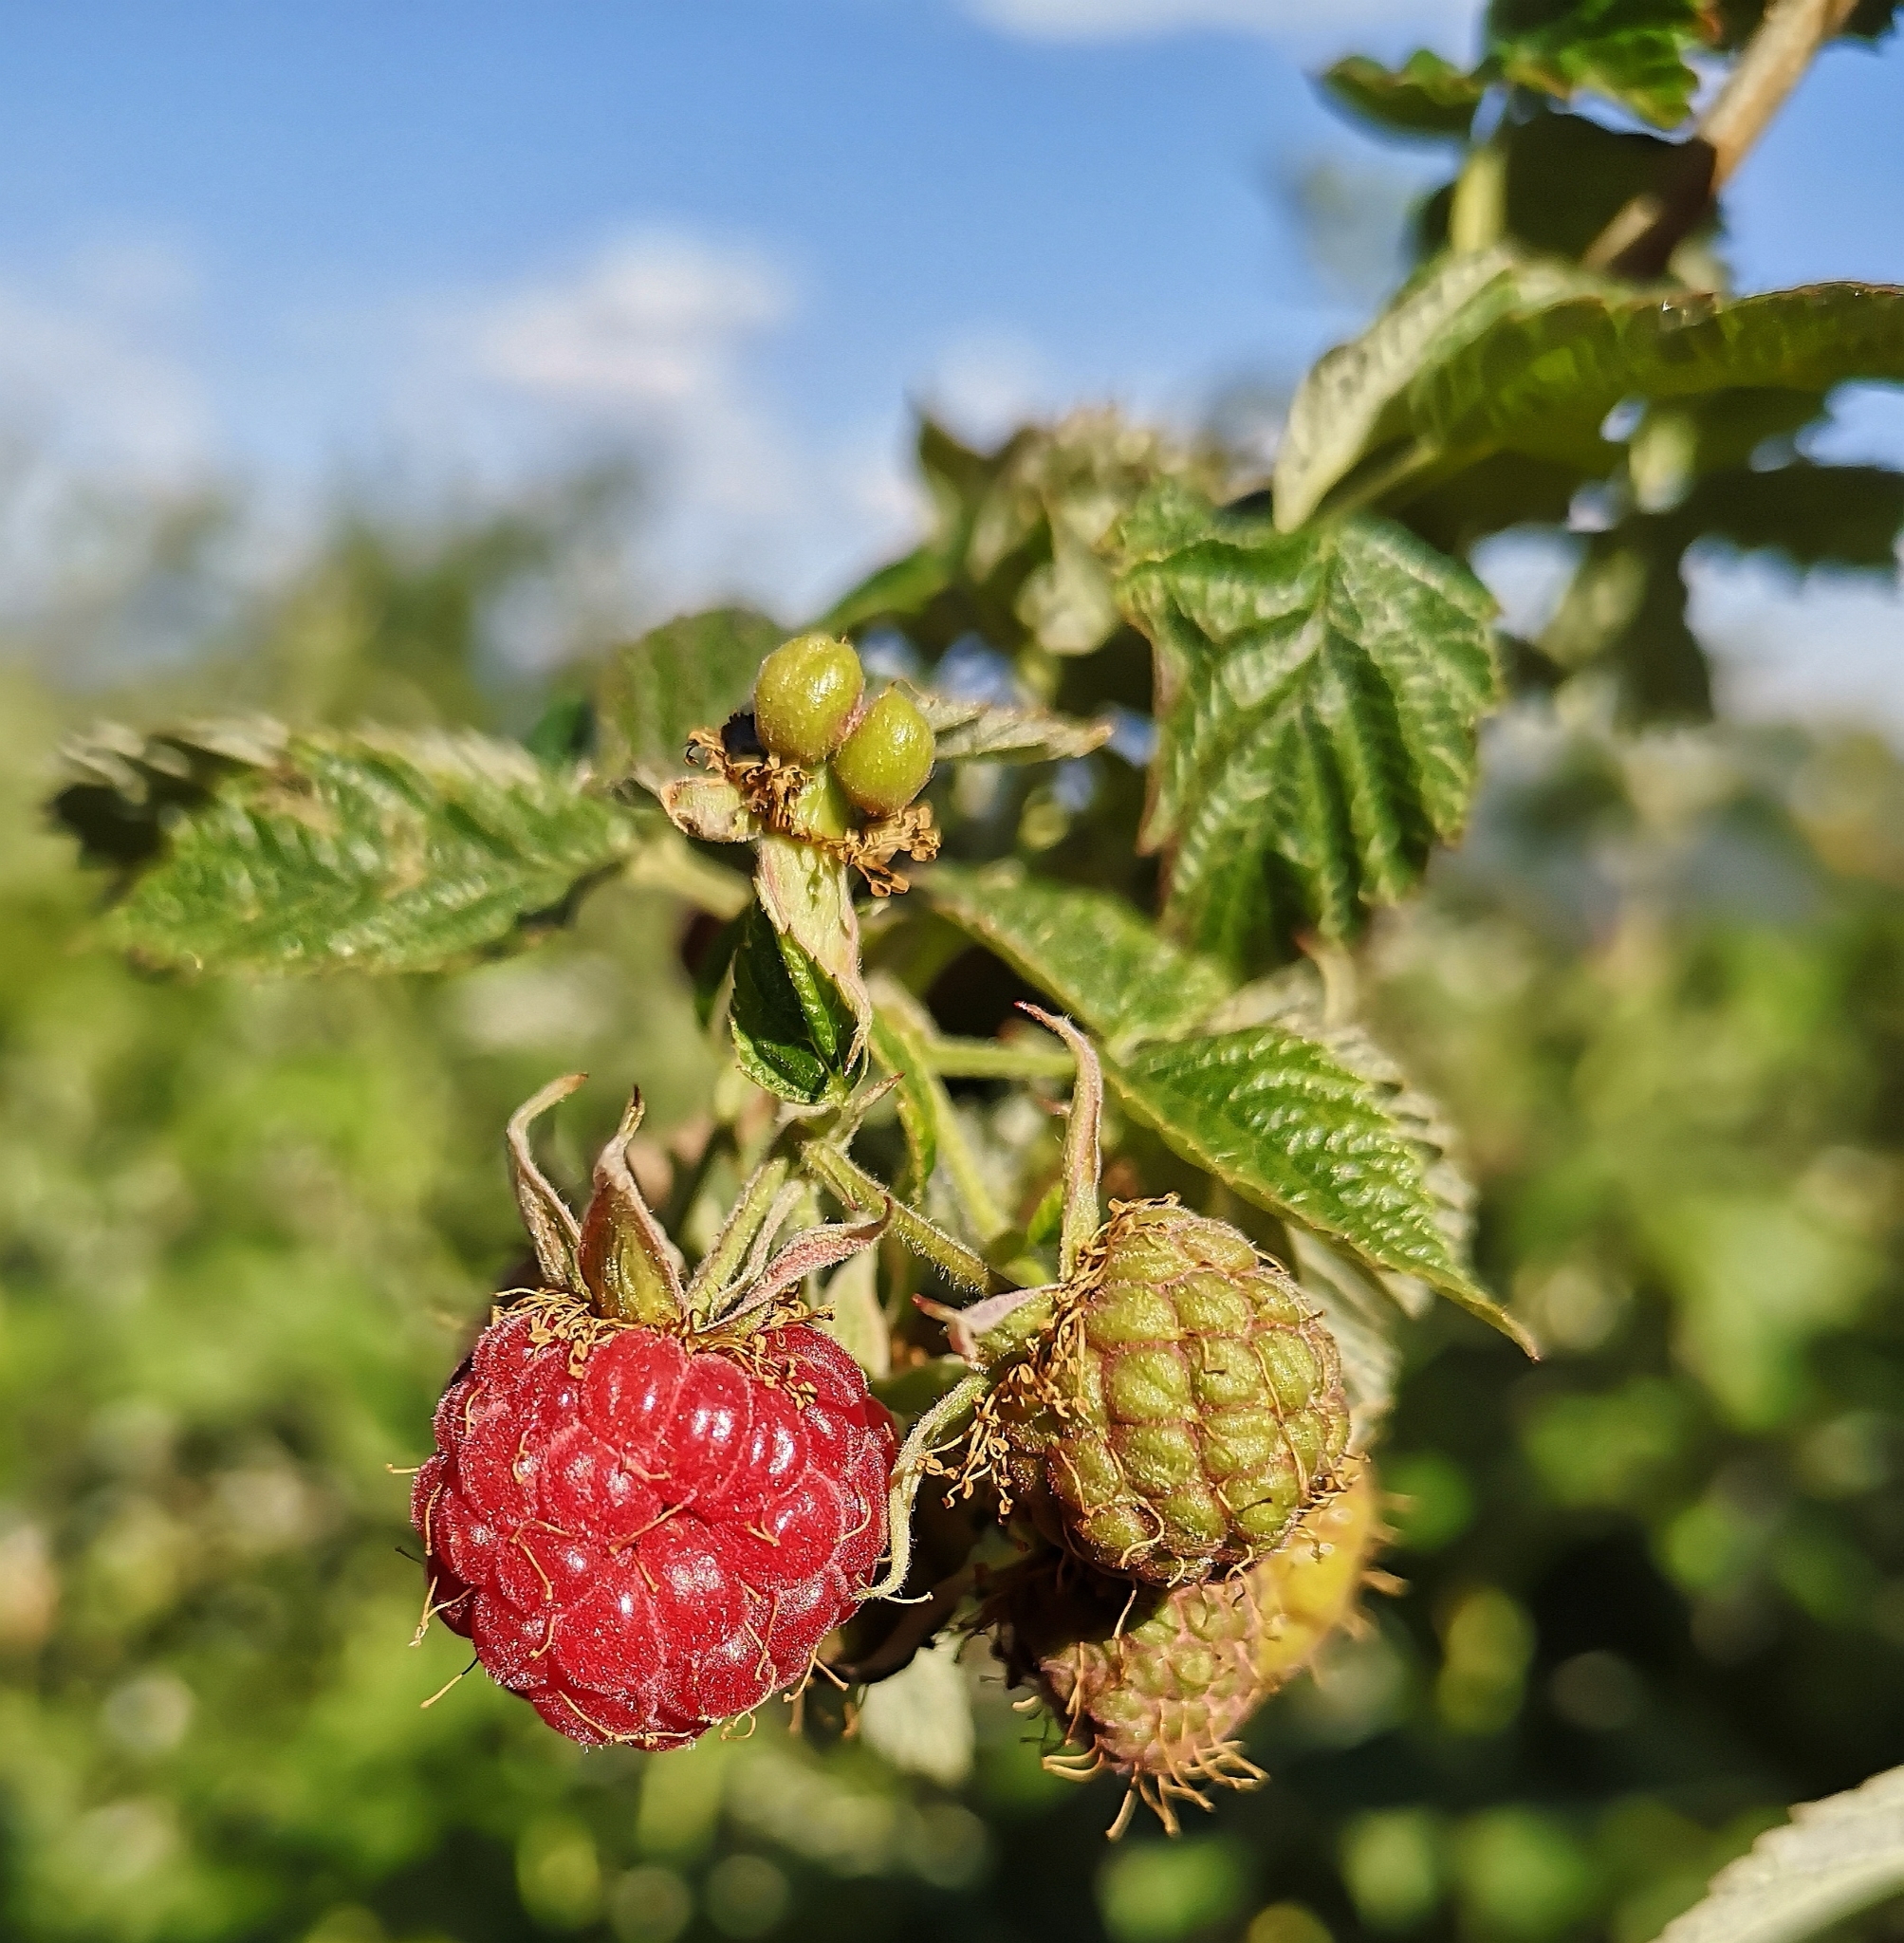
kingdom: Plantae
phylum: Tracheophyta
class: Magnoliopsida
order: Rosales
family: Rosaceae
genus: Rubus
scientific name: Rubus idaeus
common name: Raspberry
